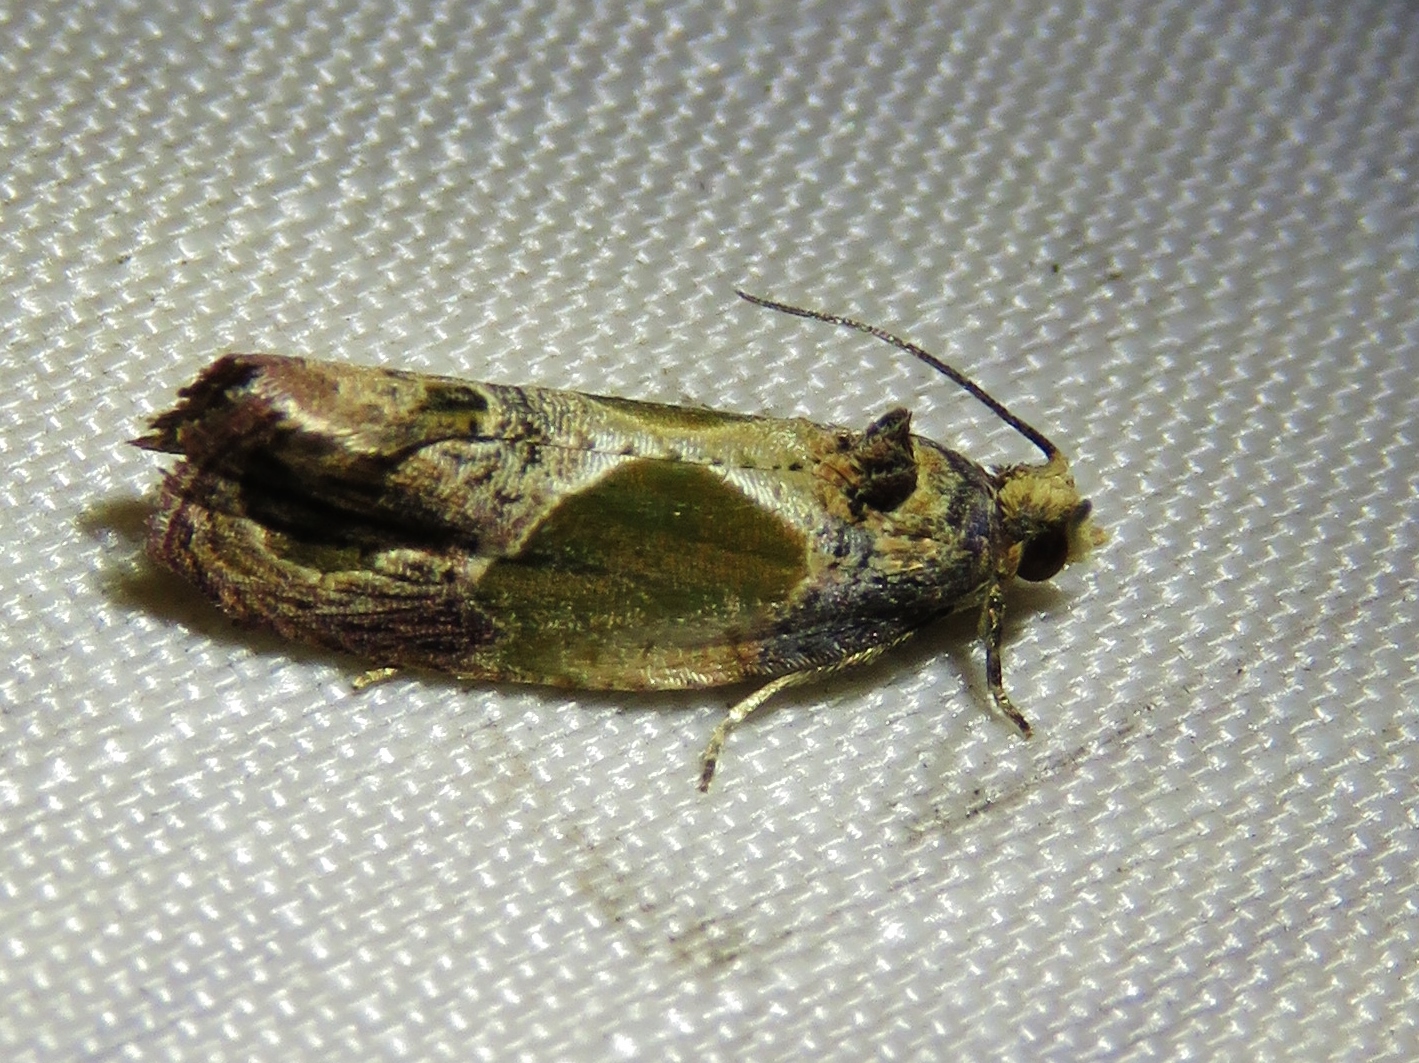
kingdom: Animalia
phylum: Arthropoda
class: Insecta
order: Lepidoptera
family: Tortricidae
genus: Eumarozia
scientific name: Eumarozia malachitana
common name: Sculptured moth
